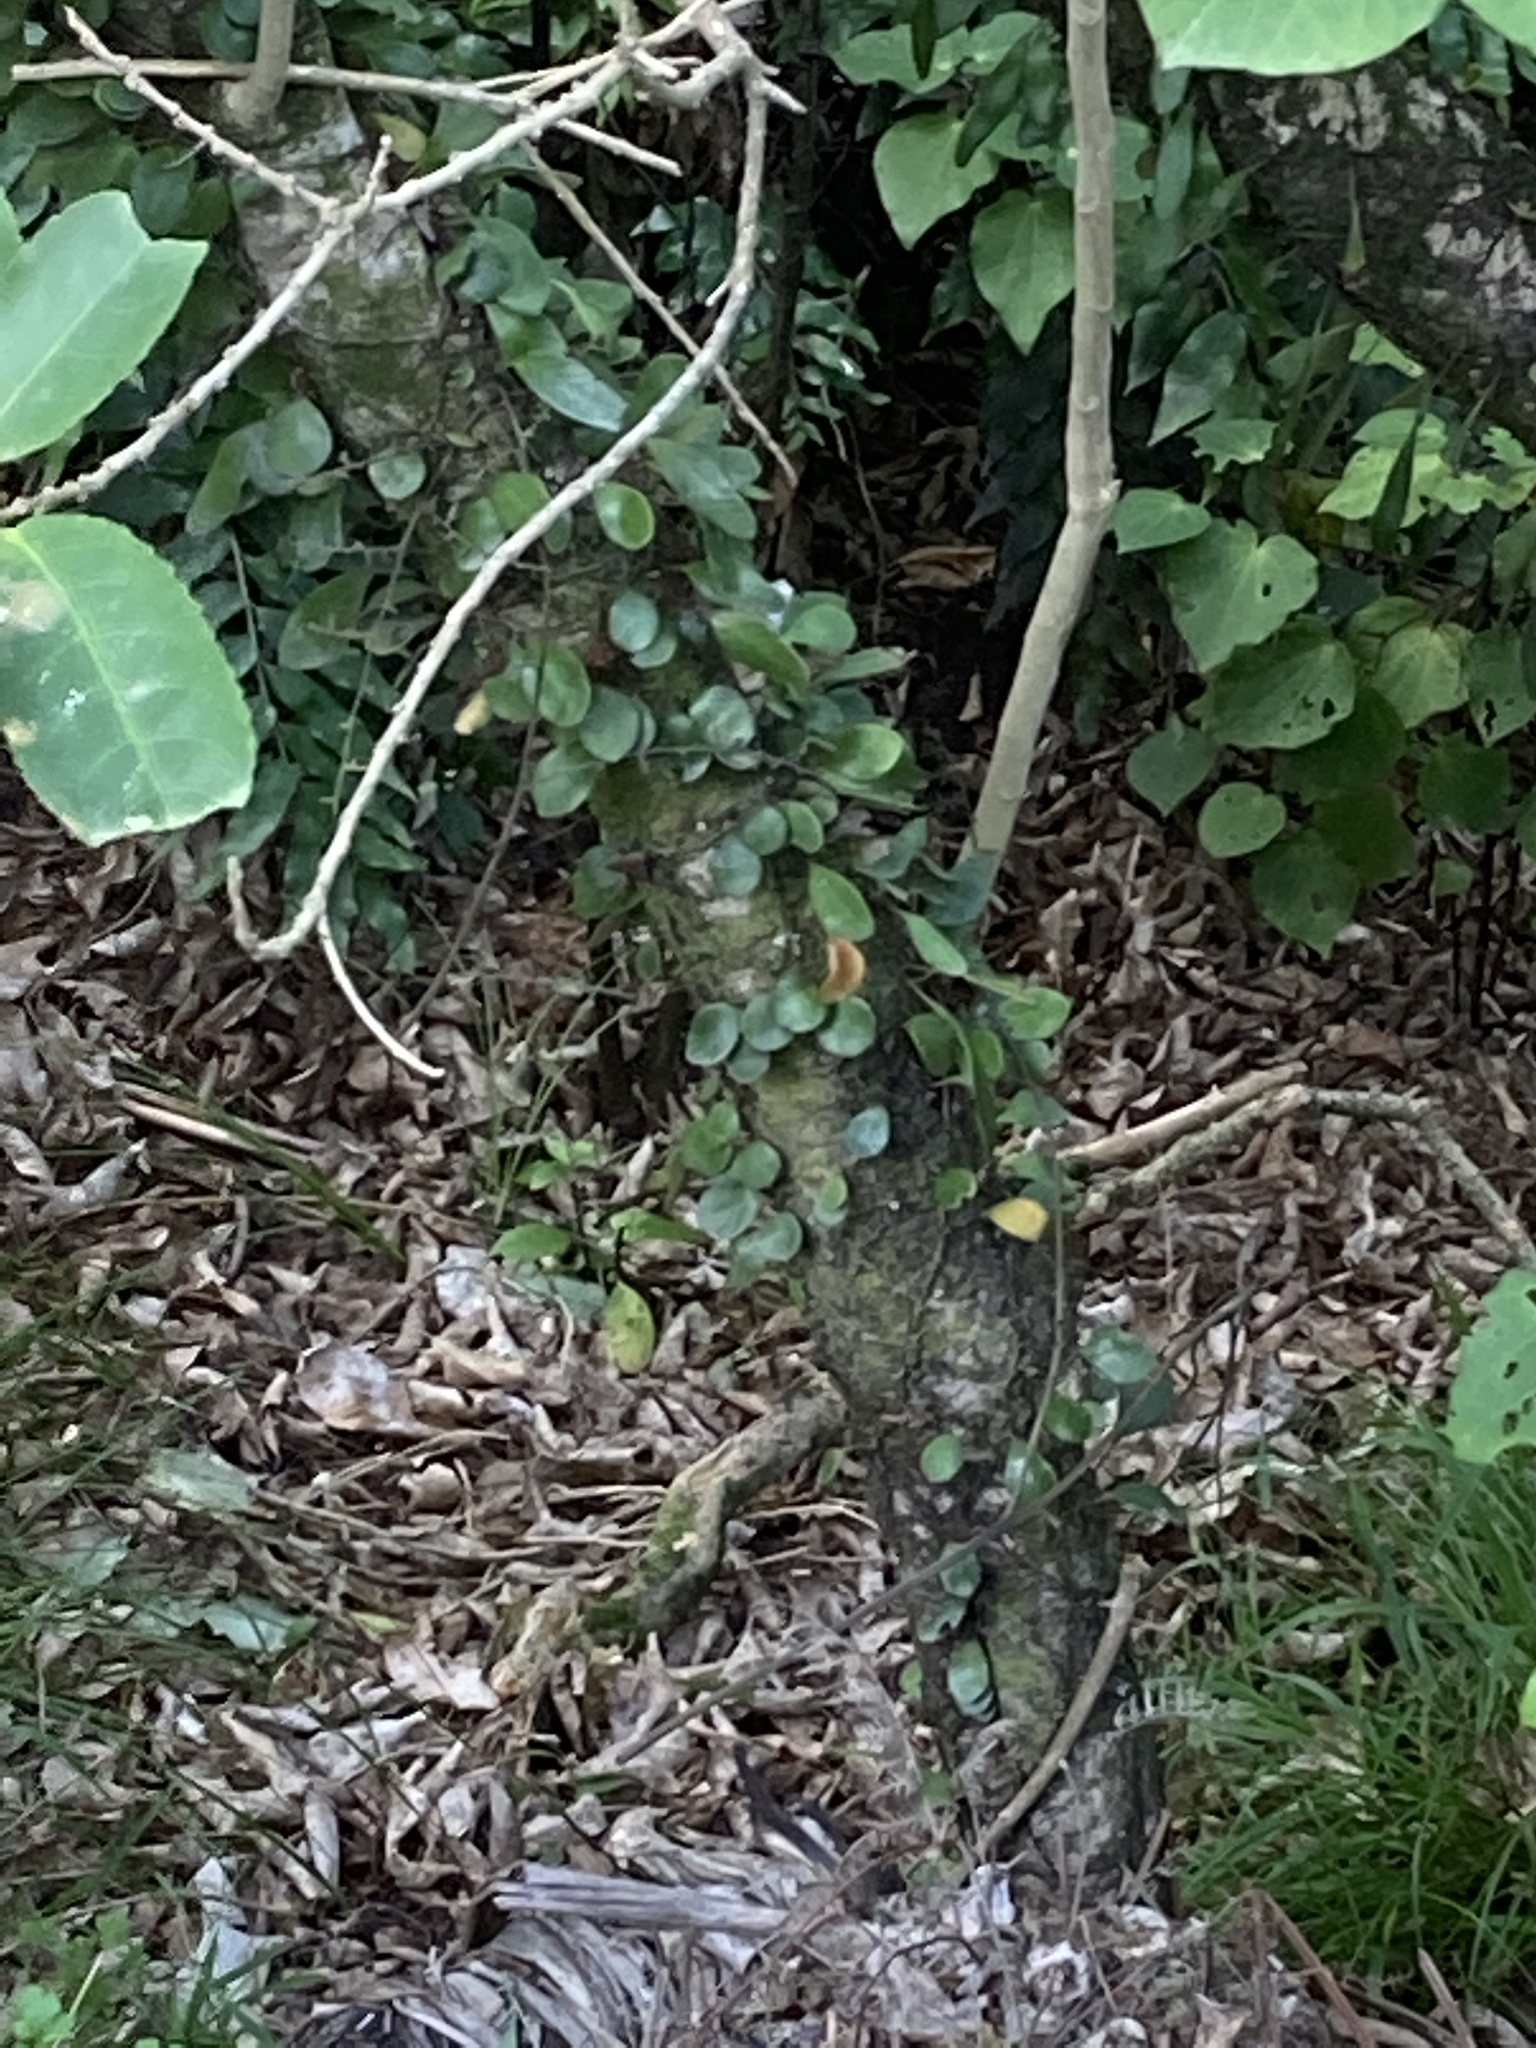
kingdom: Plantae
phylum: Tracheophyta
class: Polypodiopsida
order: Polypodiales
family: Polypodiaceae
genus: Pyrrosia
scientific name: Pyrrosia eleagnifolia
